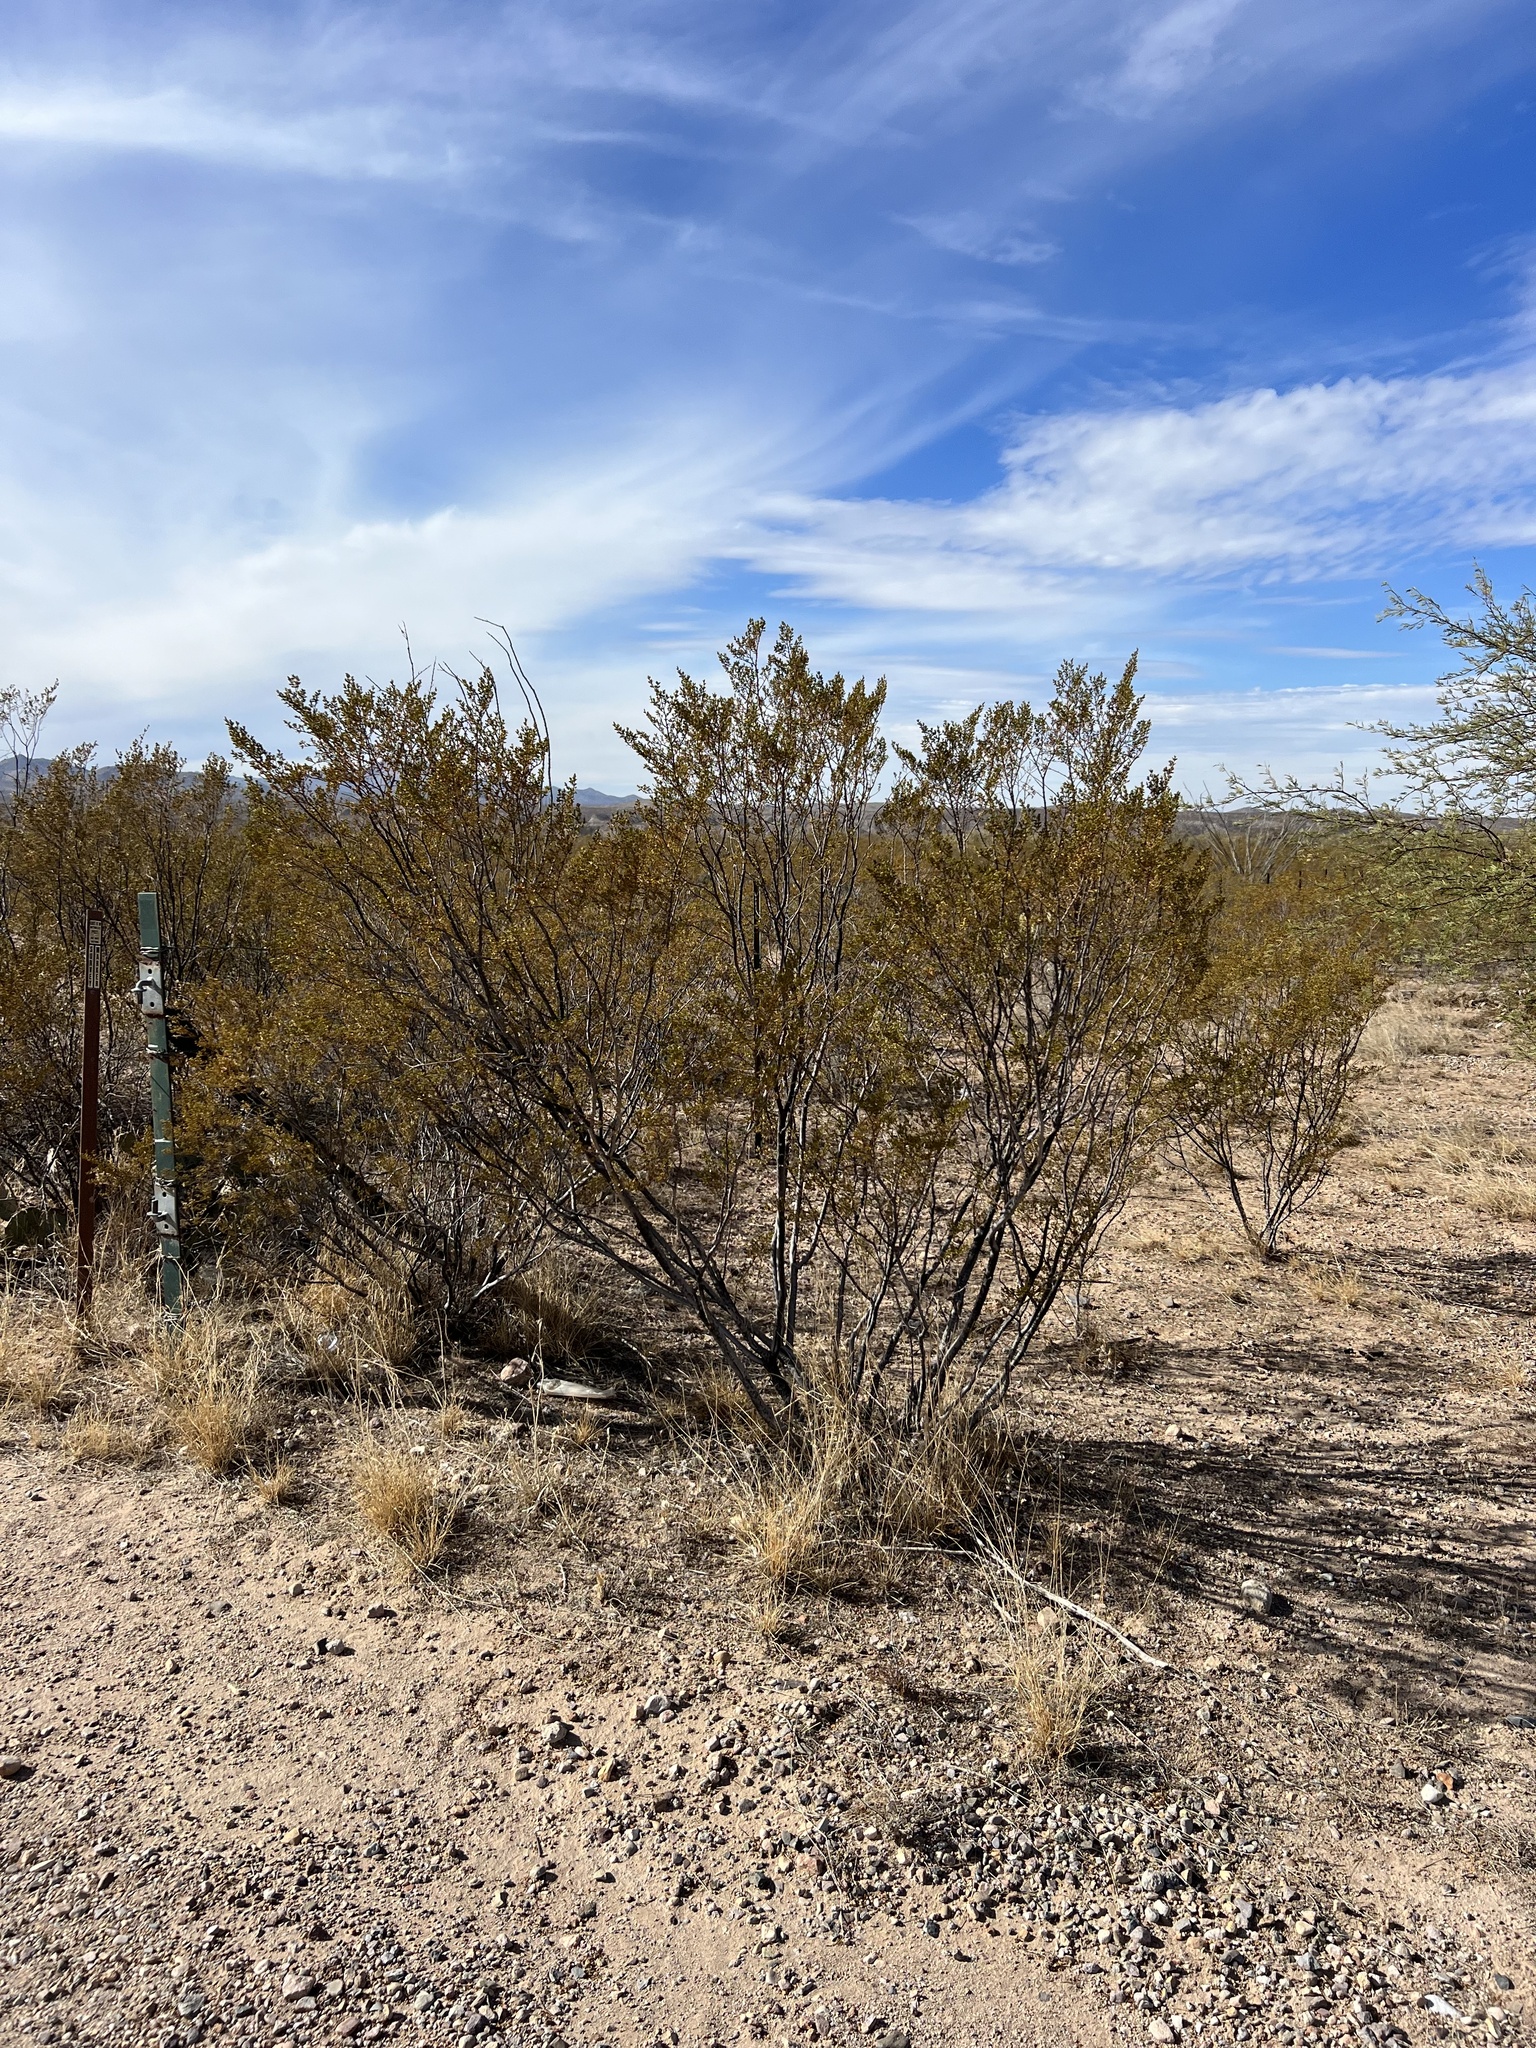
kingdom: Plantae
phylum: Tracheophyta
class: Magnoliopsida
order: Zygophyllales
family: Zygophyllaceae
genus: Larrea
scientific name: Larrea tridentata
